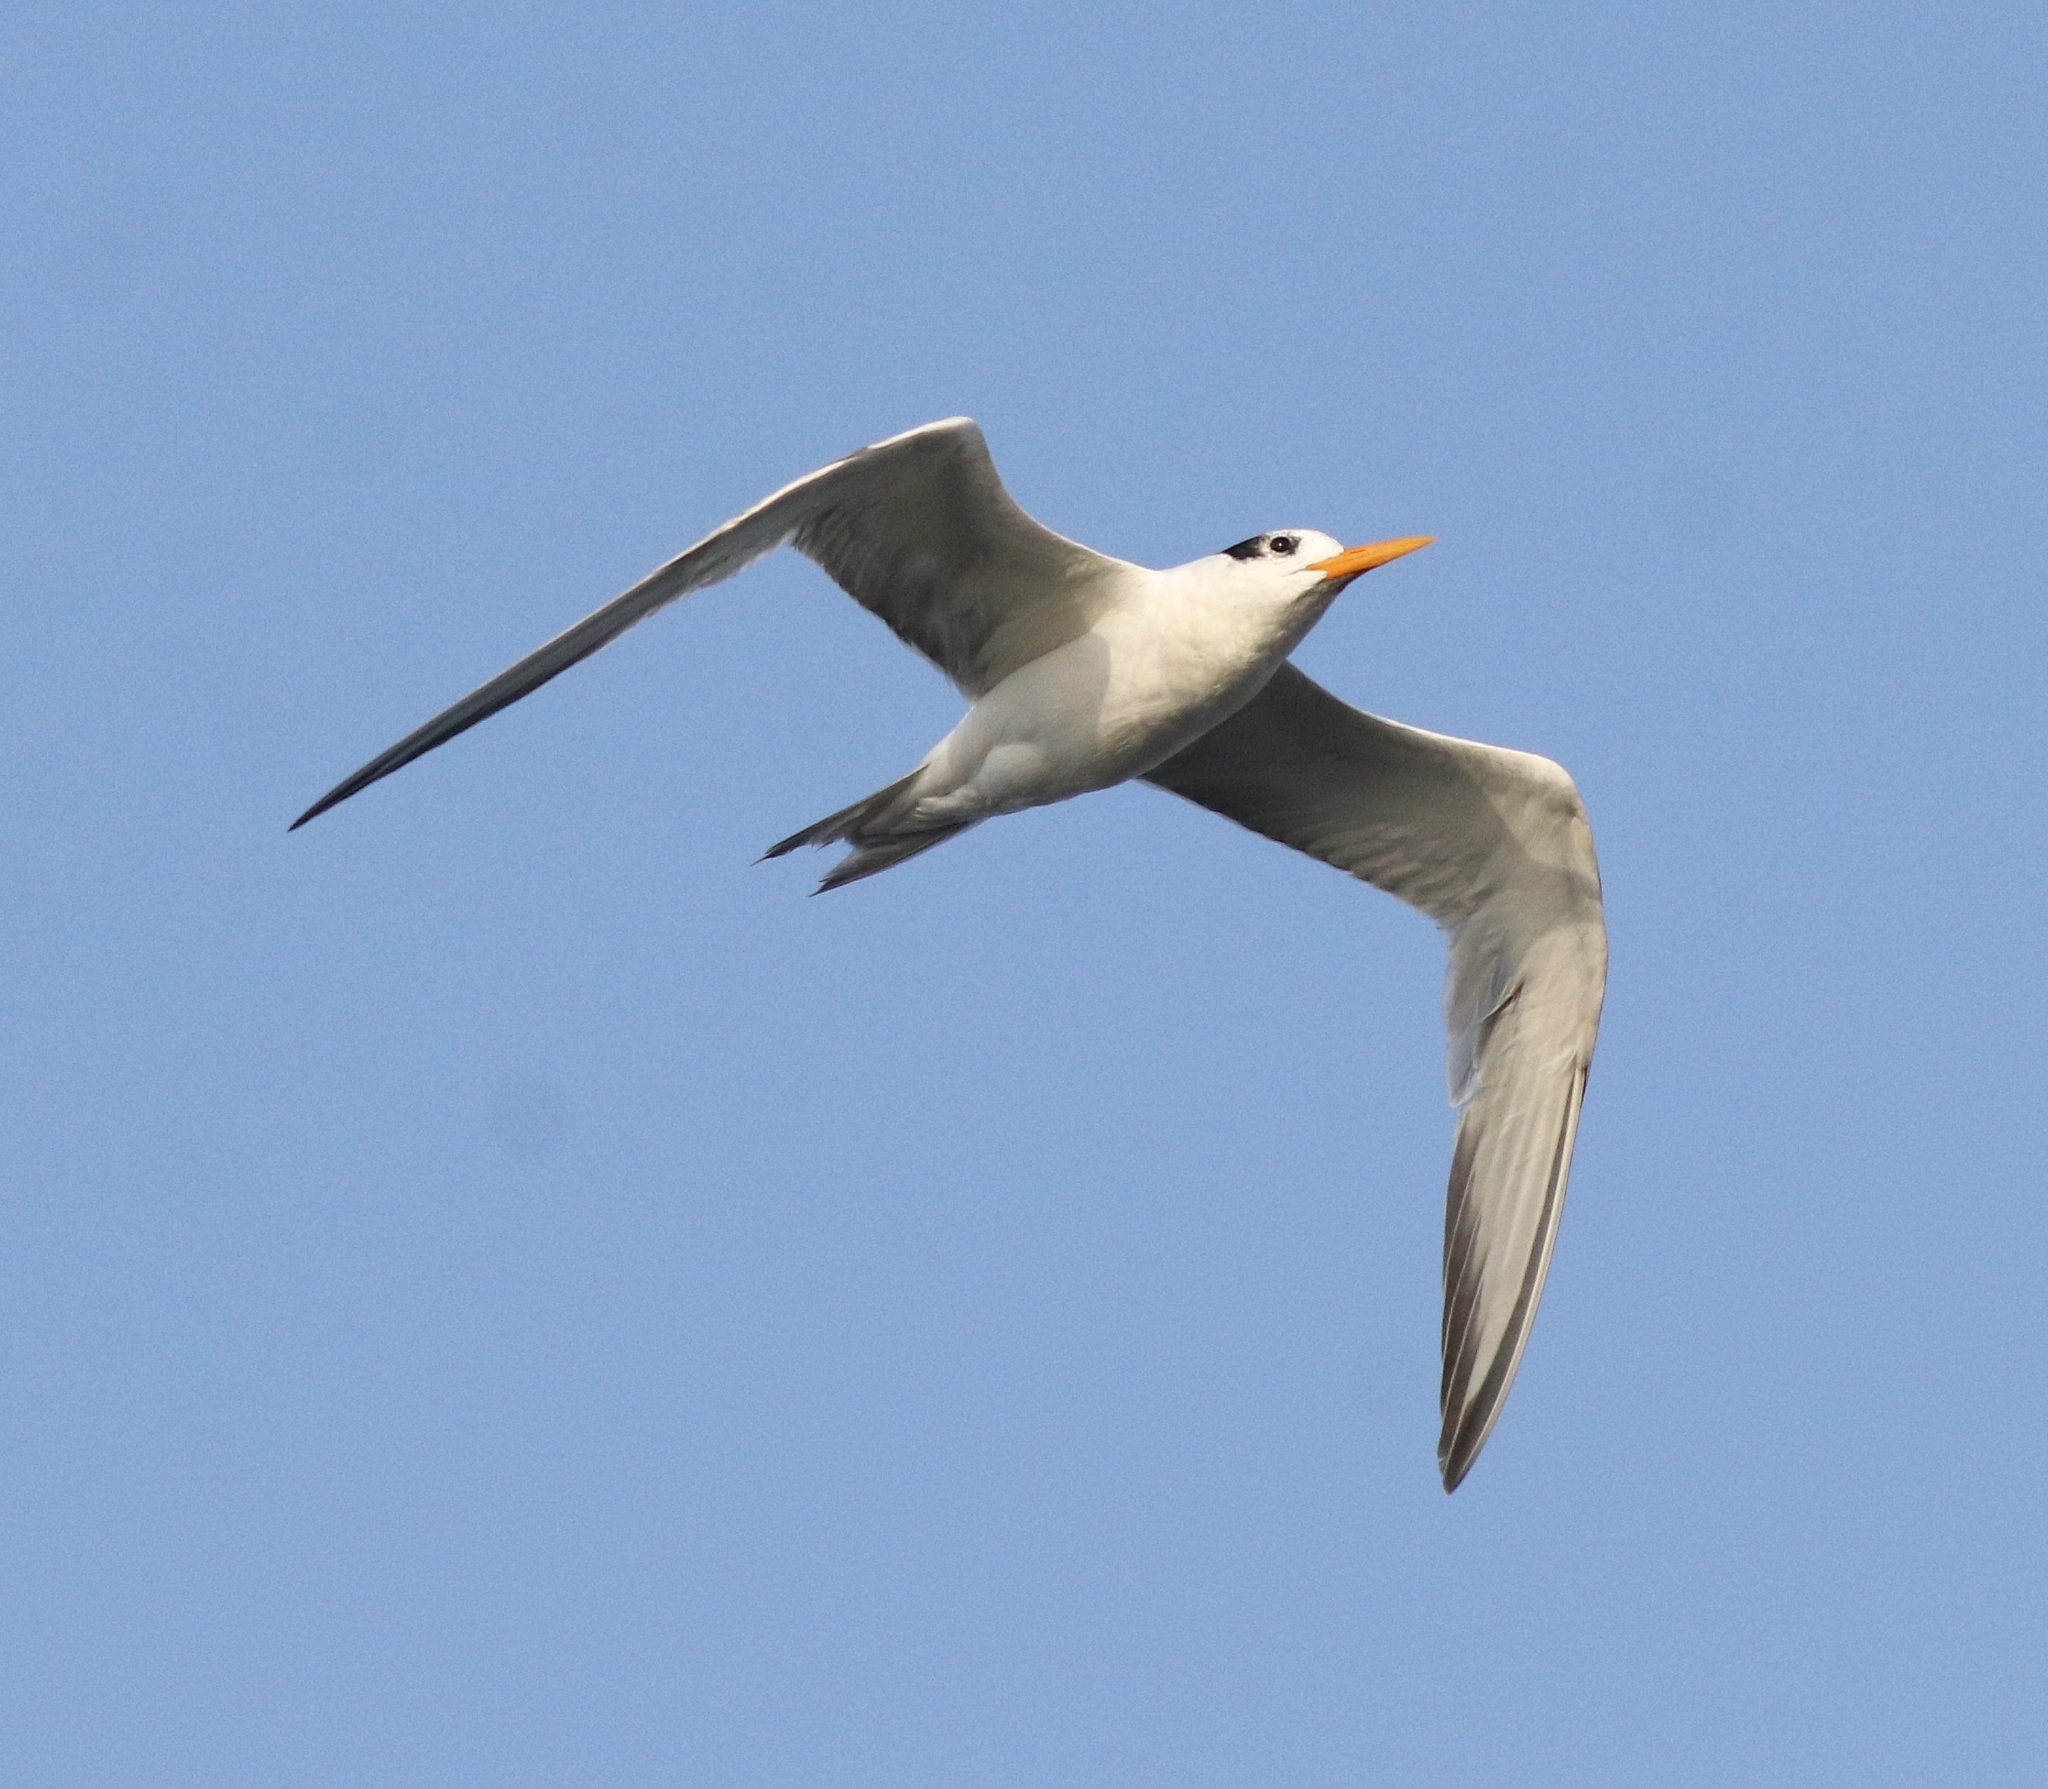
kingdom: Animalia
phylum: Chordata
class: Aves
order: Charadriiformes
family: Laridae
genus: Thalasseus
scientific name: Thalasseus bengalensis
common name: Lesser crested tern
